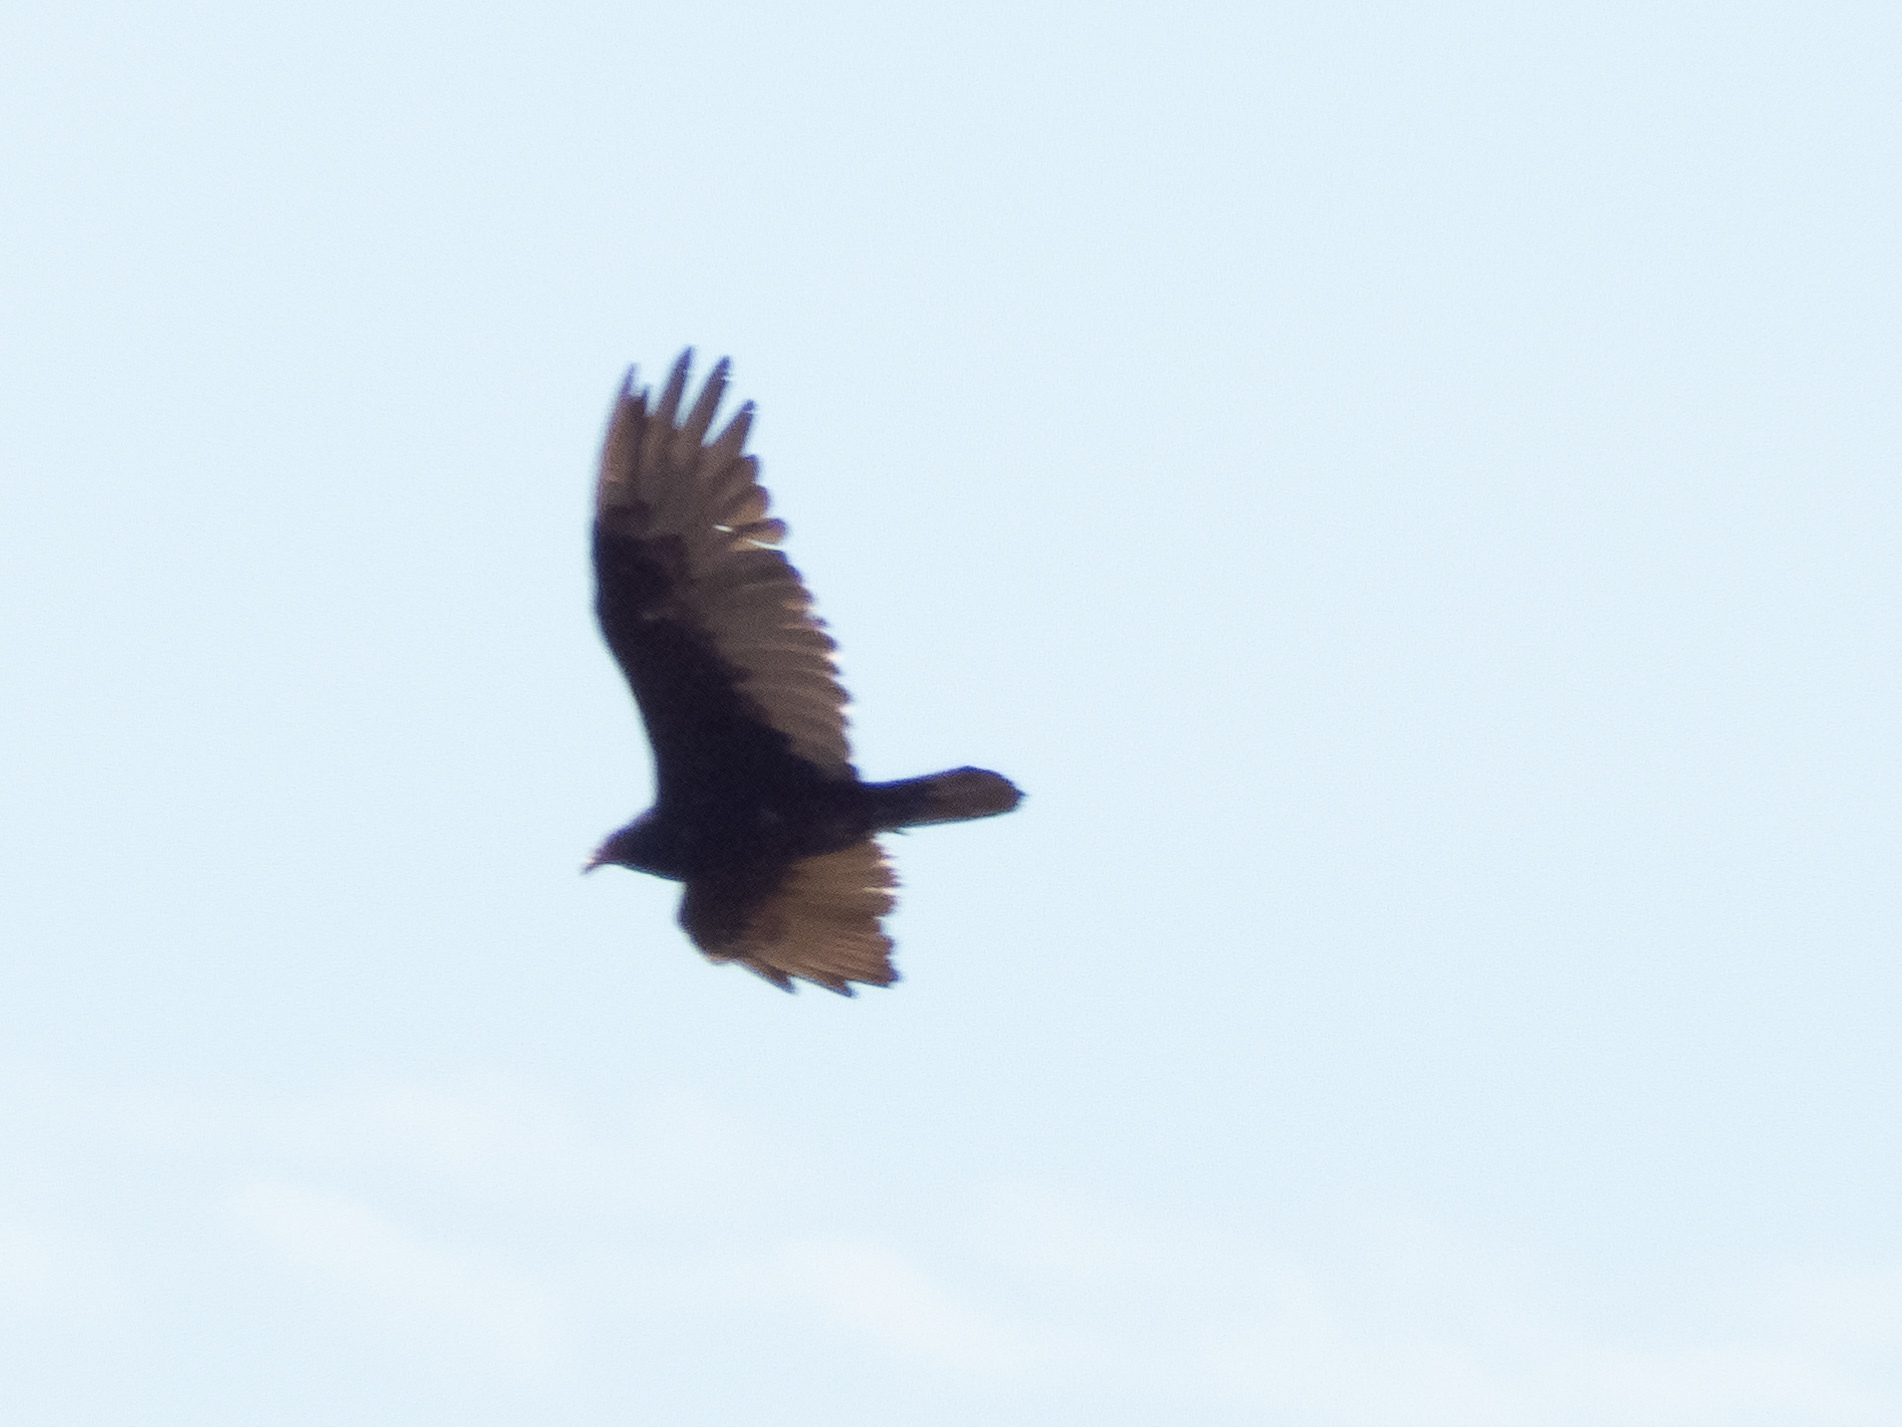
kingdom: Animalia
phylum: Chordata
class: Aves
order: Accipitriformes
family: Cathartidae
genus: Cathartes
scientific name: Cathartes aura
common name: Turkey vulture
